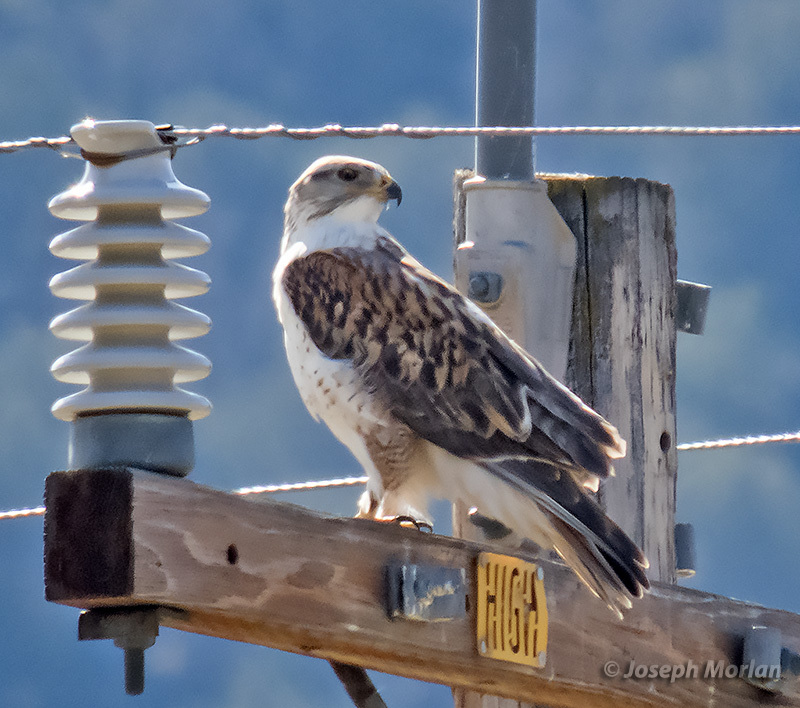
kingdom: Animalia
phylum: Chordata
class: Aves
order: Accipitriformes
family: Accipitridae
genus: Buteo
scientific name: Buteo regalis
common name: Ferruginous hawk
